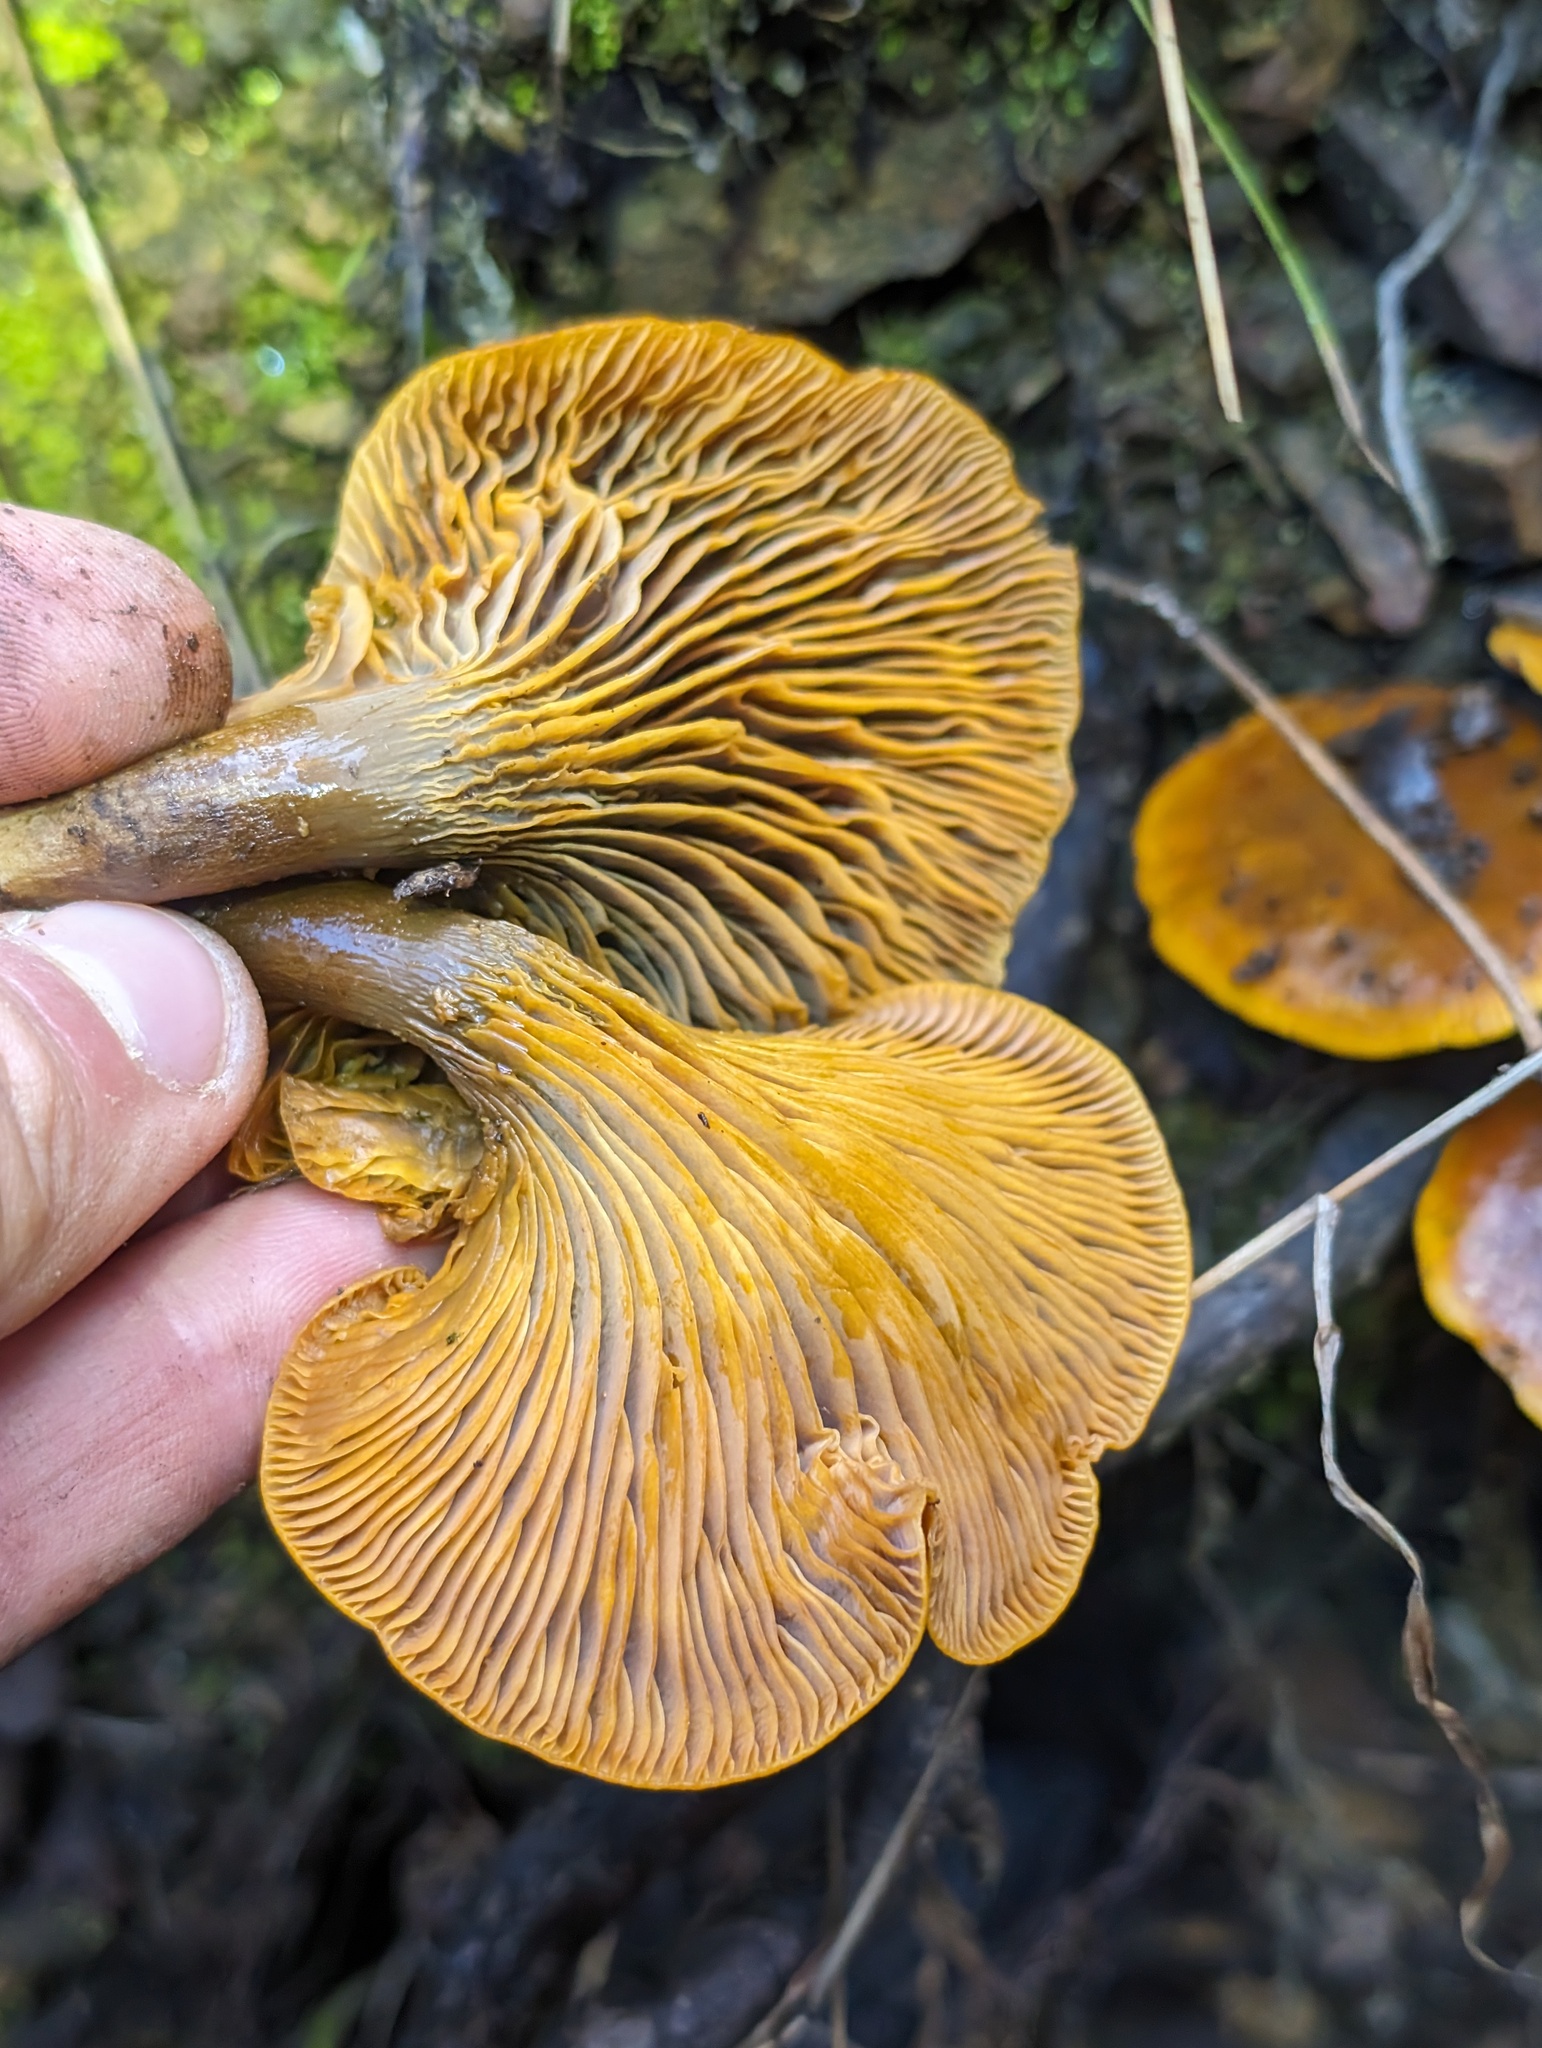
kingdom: Fungi
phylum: Basidiomycota
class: Agaricomycetes
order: Agaricales
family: Omphalotaceae
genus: Omphalotus
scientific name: Omphalotus olivascens
